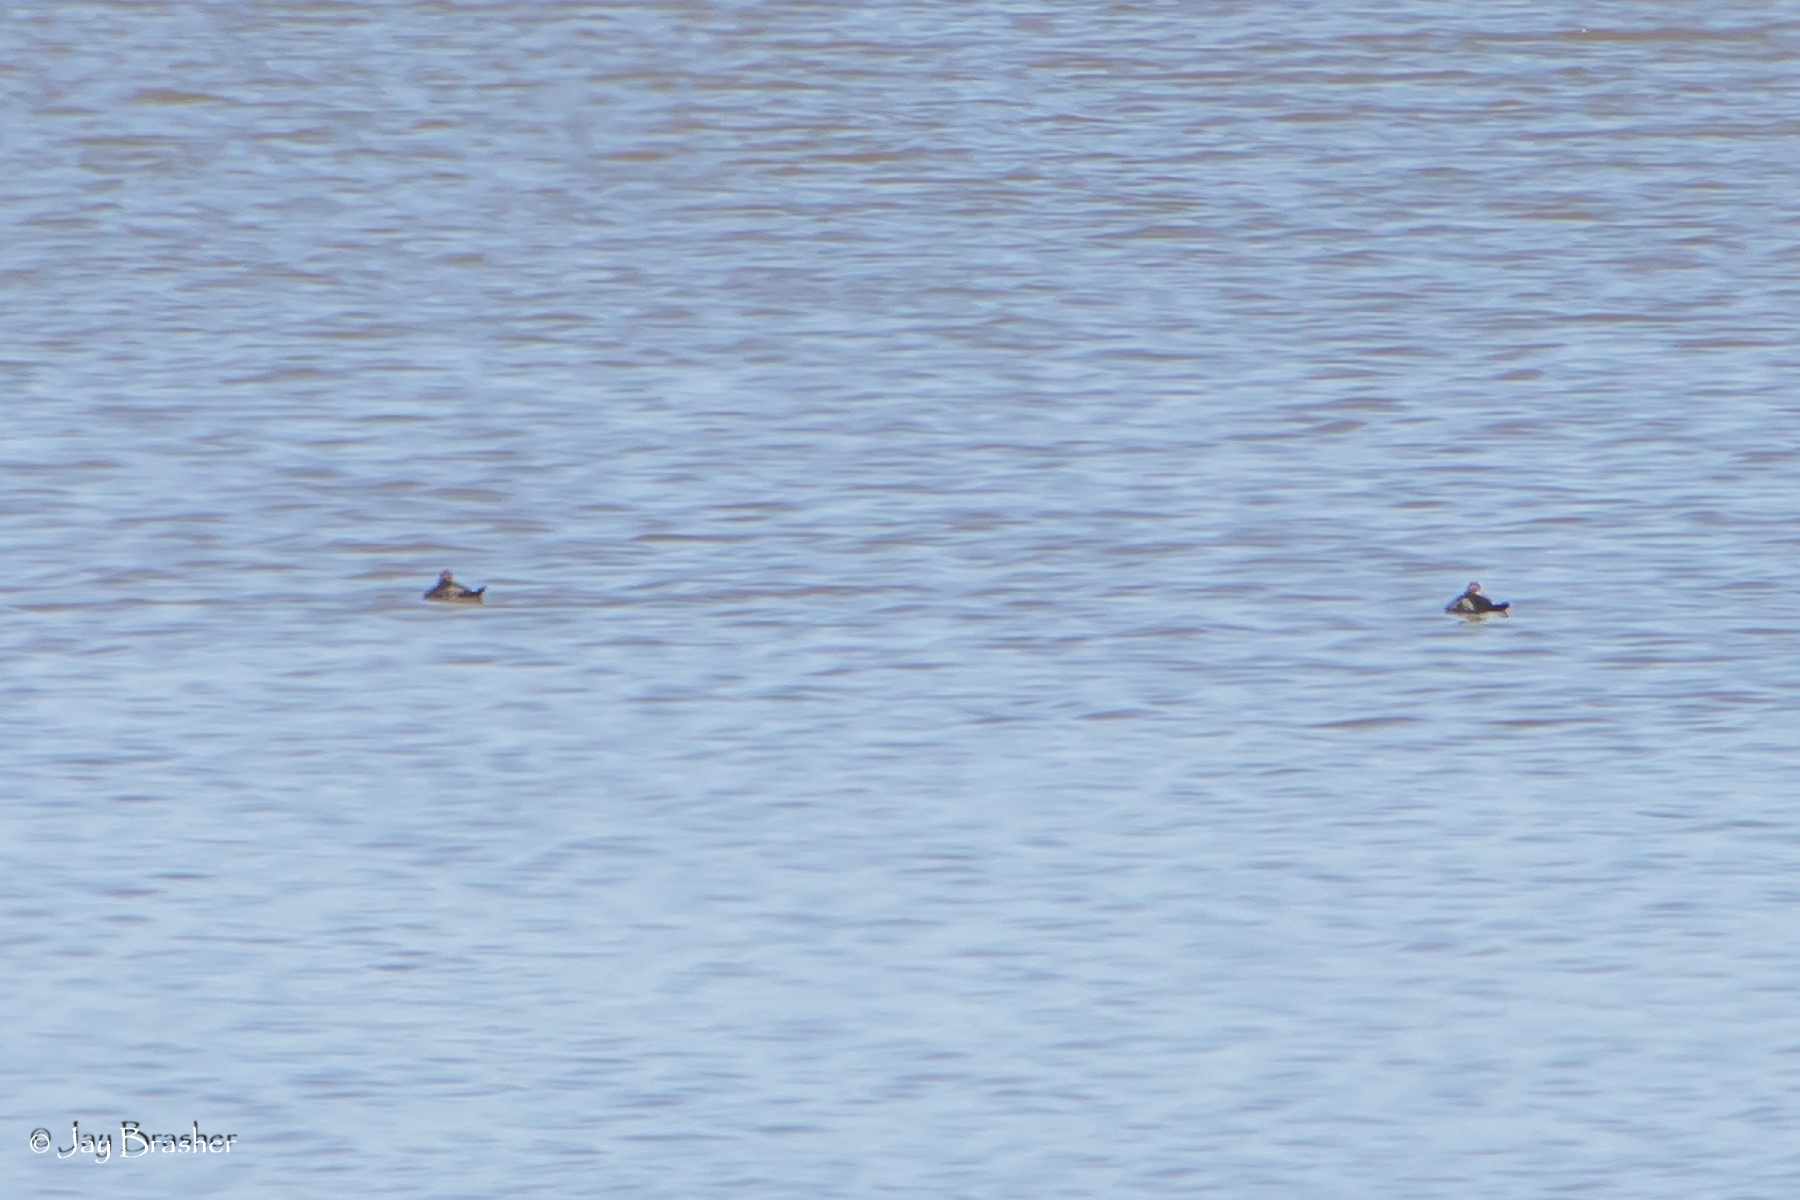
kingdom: Animalia
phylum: Chordata
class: Aves
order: Anseriformes
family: Anatidae
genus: Oxyura
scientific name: Oxyura jamaicensis
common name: Ruddy duck
